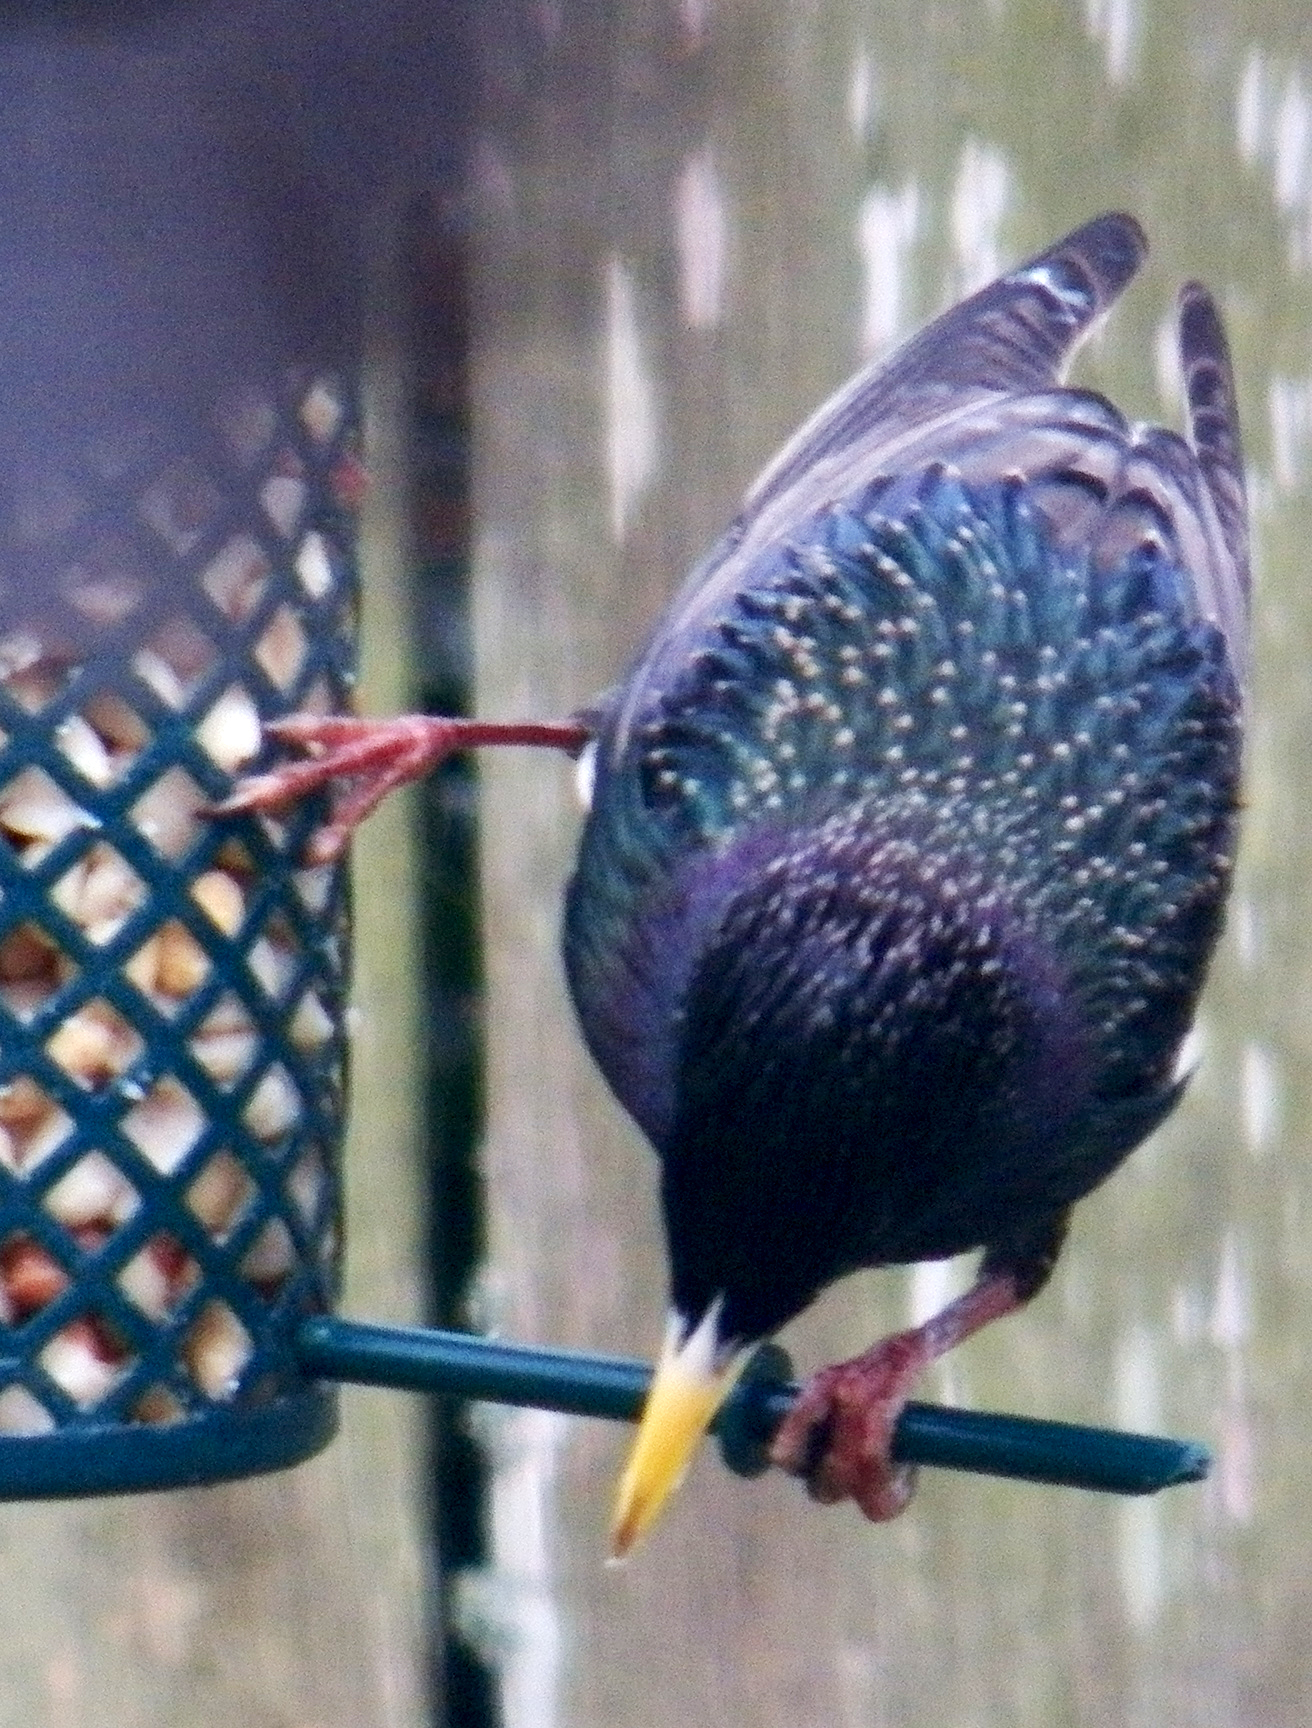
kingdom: Animalia
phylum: Chordata
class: Aves
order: Passeriformes
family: Sturnidae
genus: Sturnus
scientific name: Sturnus vulgaris
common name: Common starling
